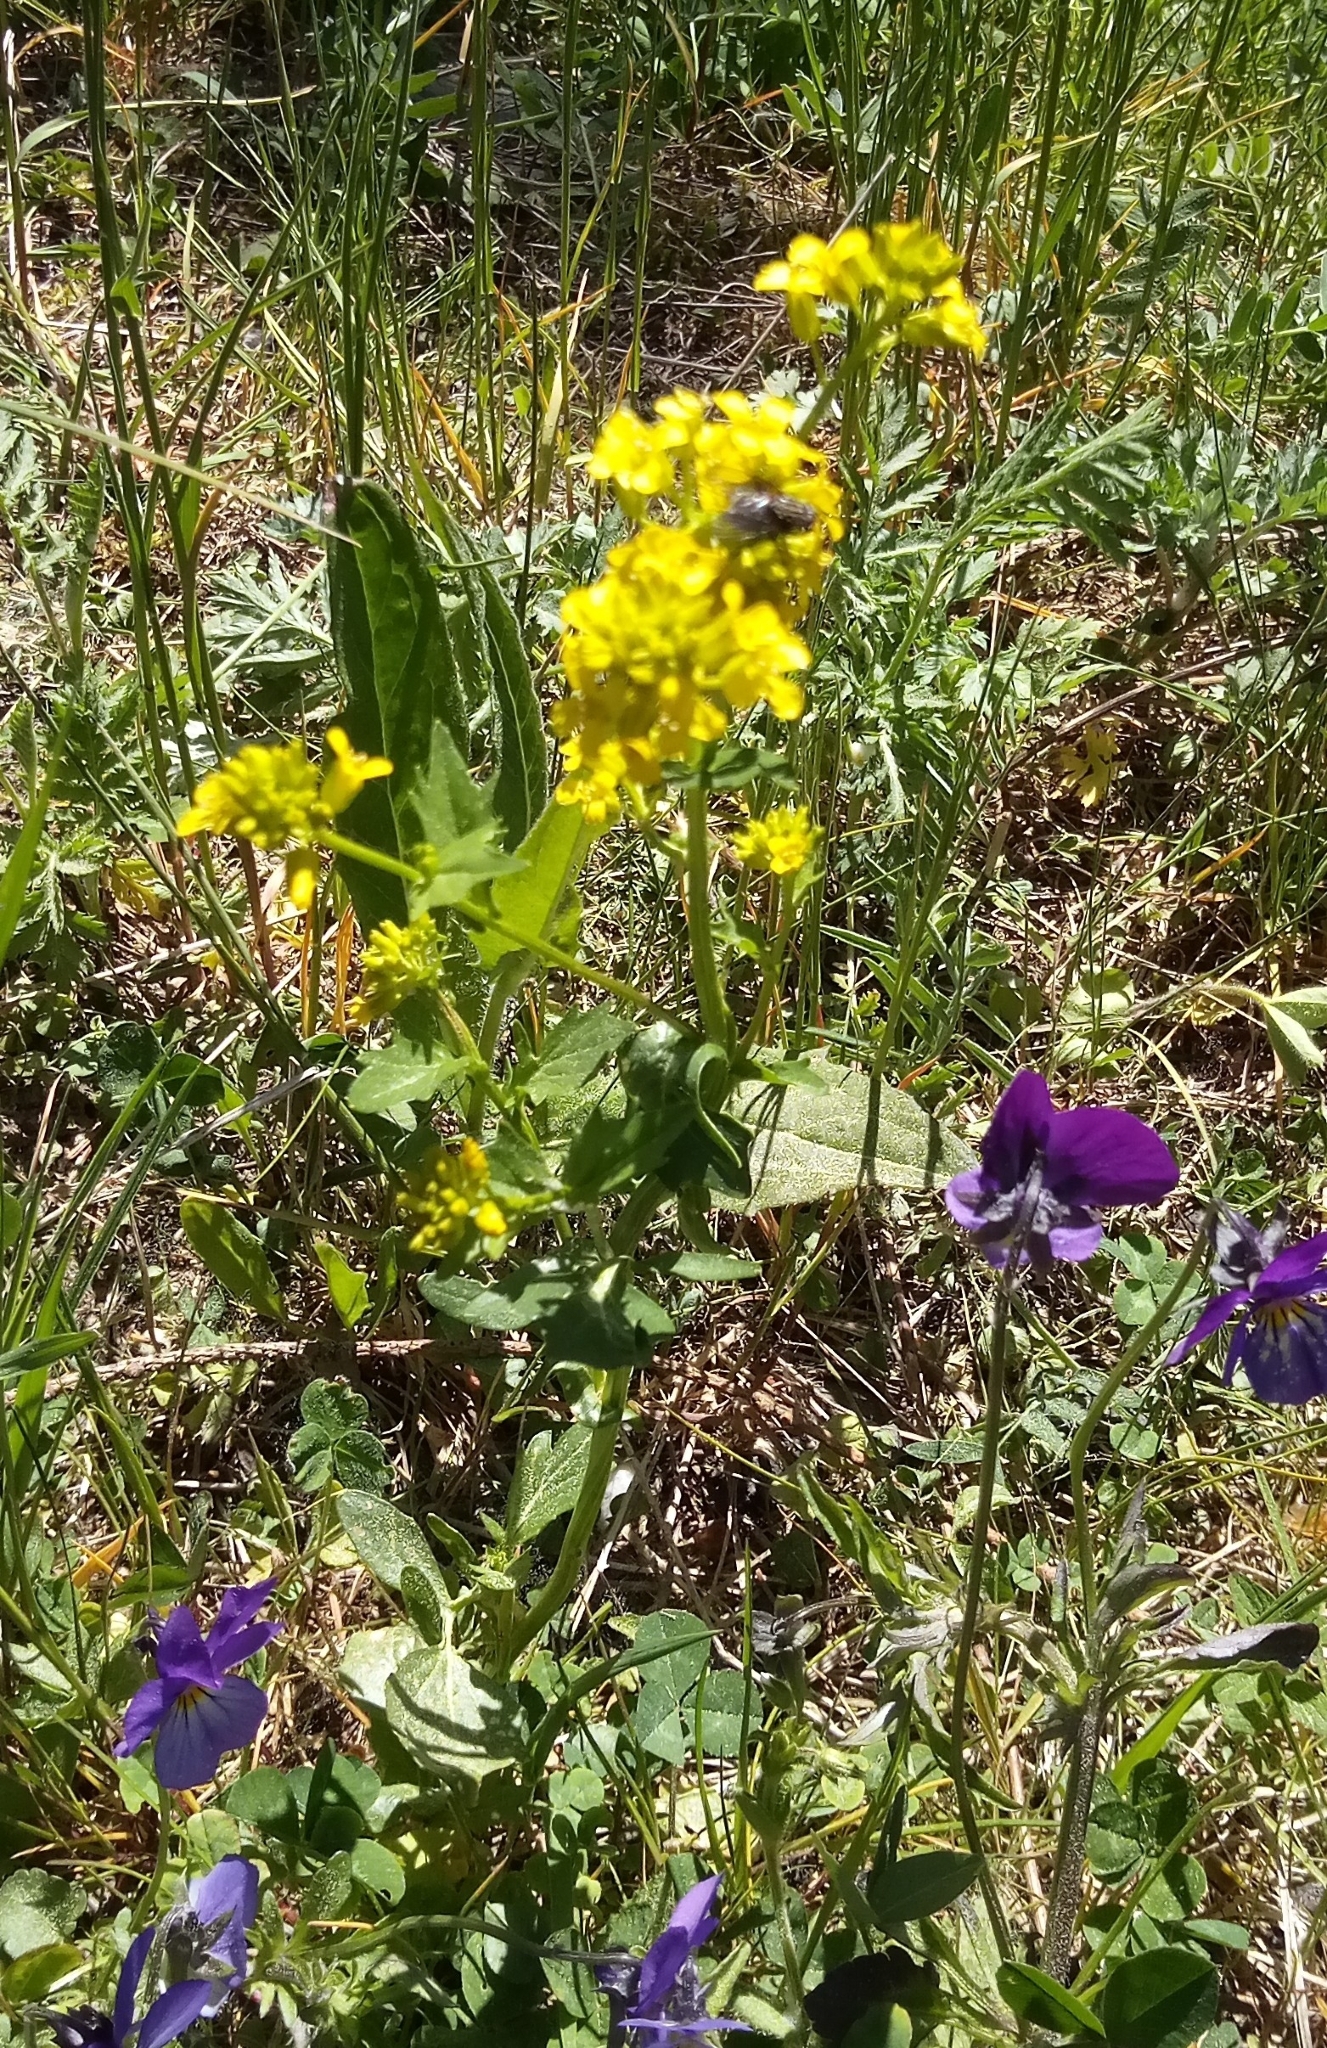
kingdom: Plantae
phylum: Tracheophyta
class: Magnoliopsida
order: Brassicales
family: Brassicaceae
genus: Barbarea
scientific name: Barbarea vulgaris
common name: Cressy-greens
